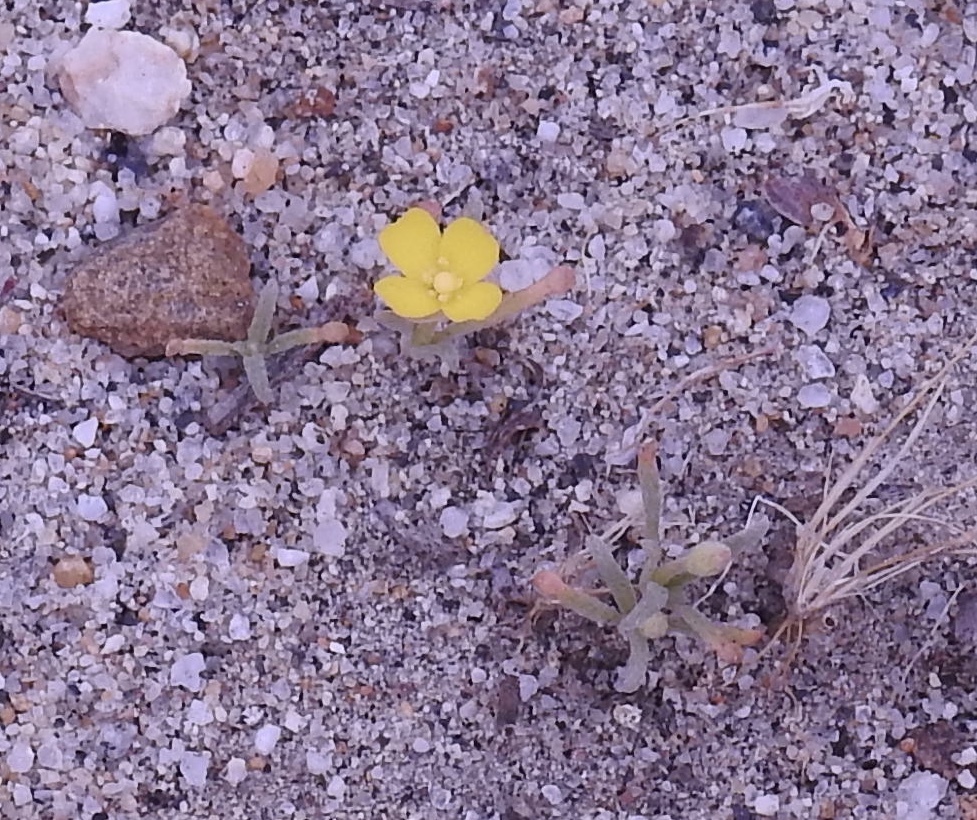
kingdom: Plantae
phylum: Tracheophyta
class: Magnoliopsida
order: Myrtales
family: Onagraceae
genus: Camissoniopsis
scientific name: Camissoniopsis pallida
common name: Paleyellow suncup
